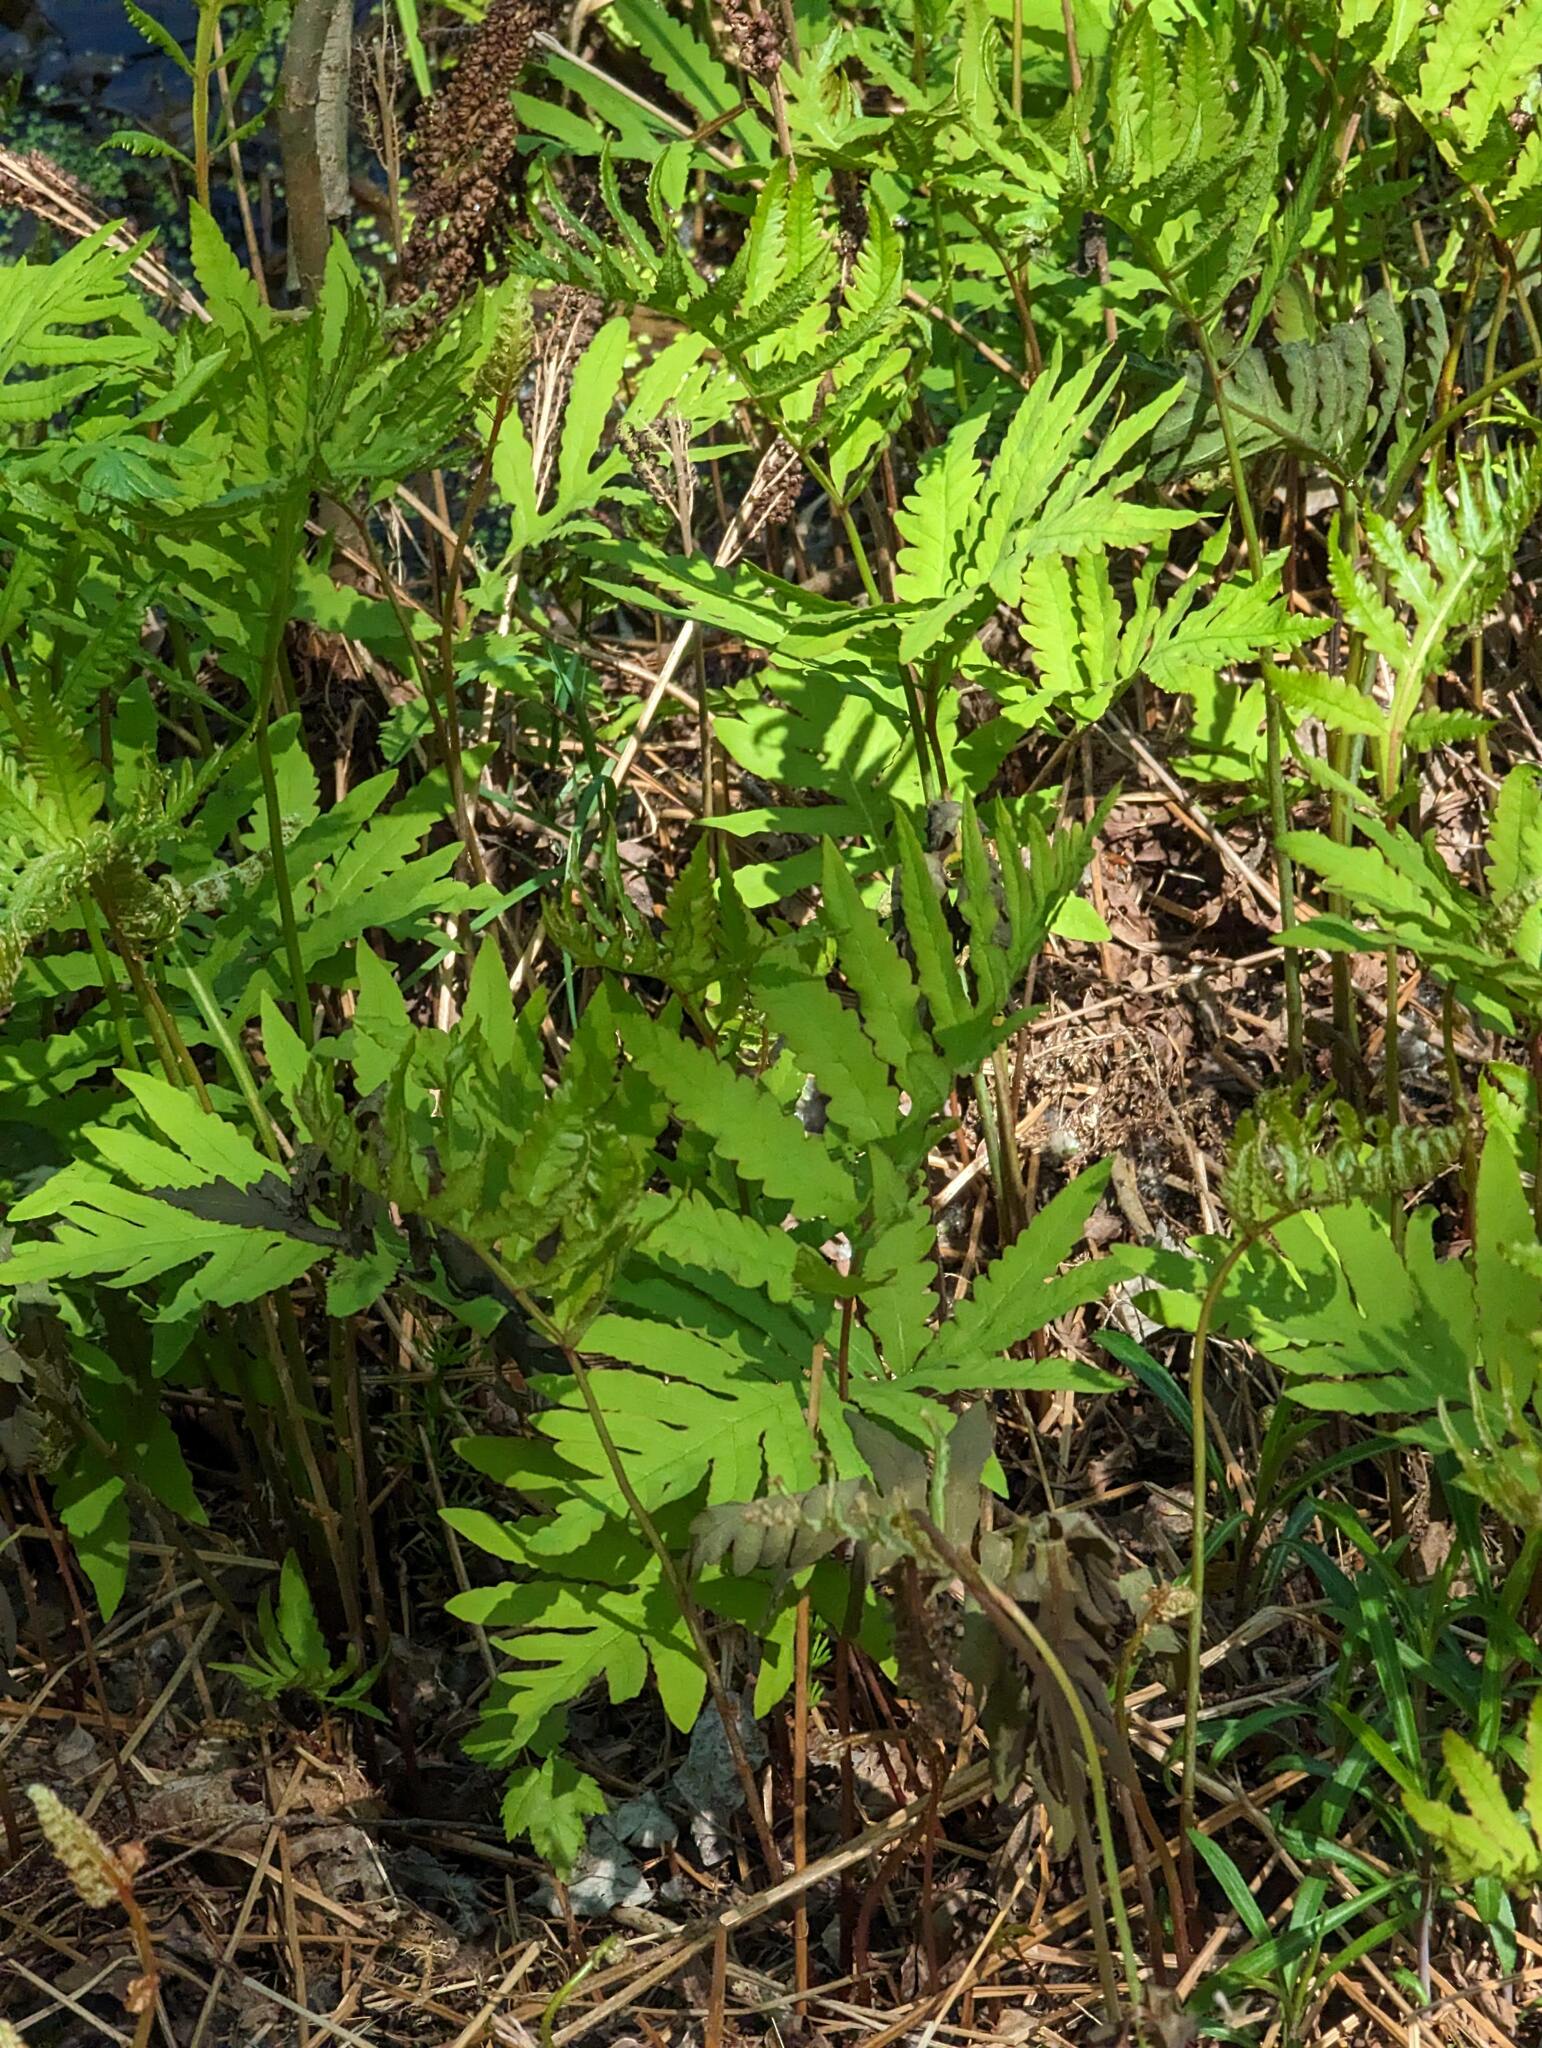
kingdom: Plantae
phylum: Tracheophyta
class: Polypodiopsida
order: Polypodiales
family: Onocleaceae
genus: Onoclea
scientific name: Onoclea sensibilis
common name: Sensitive fern
